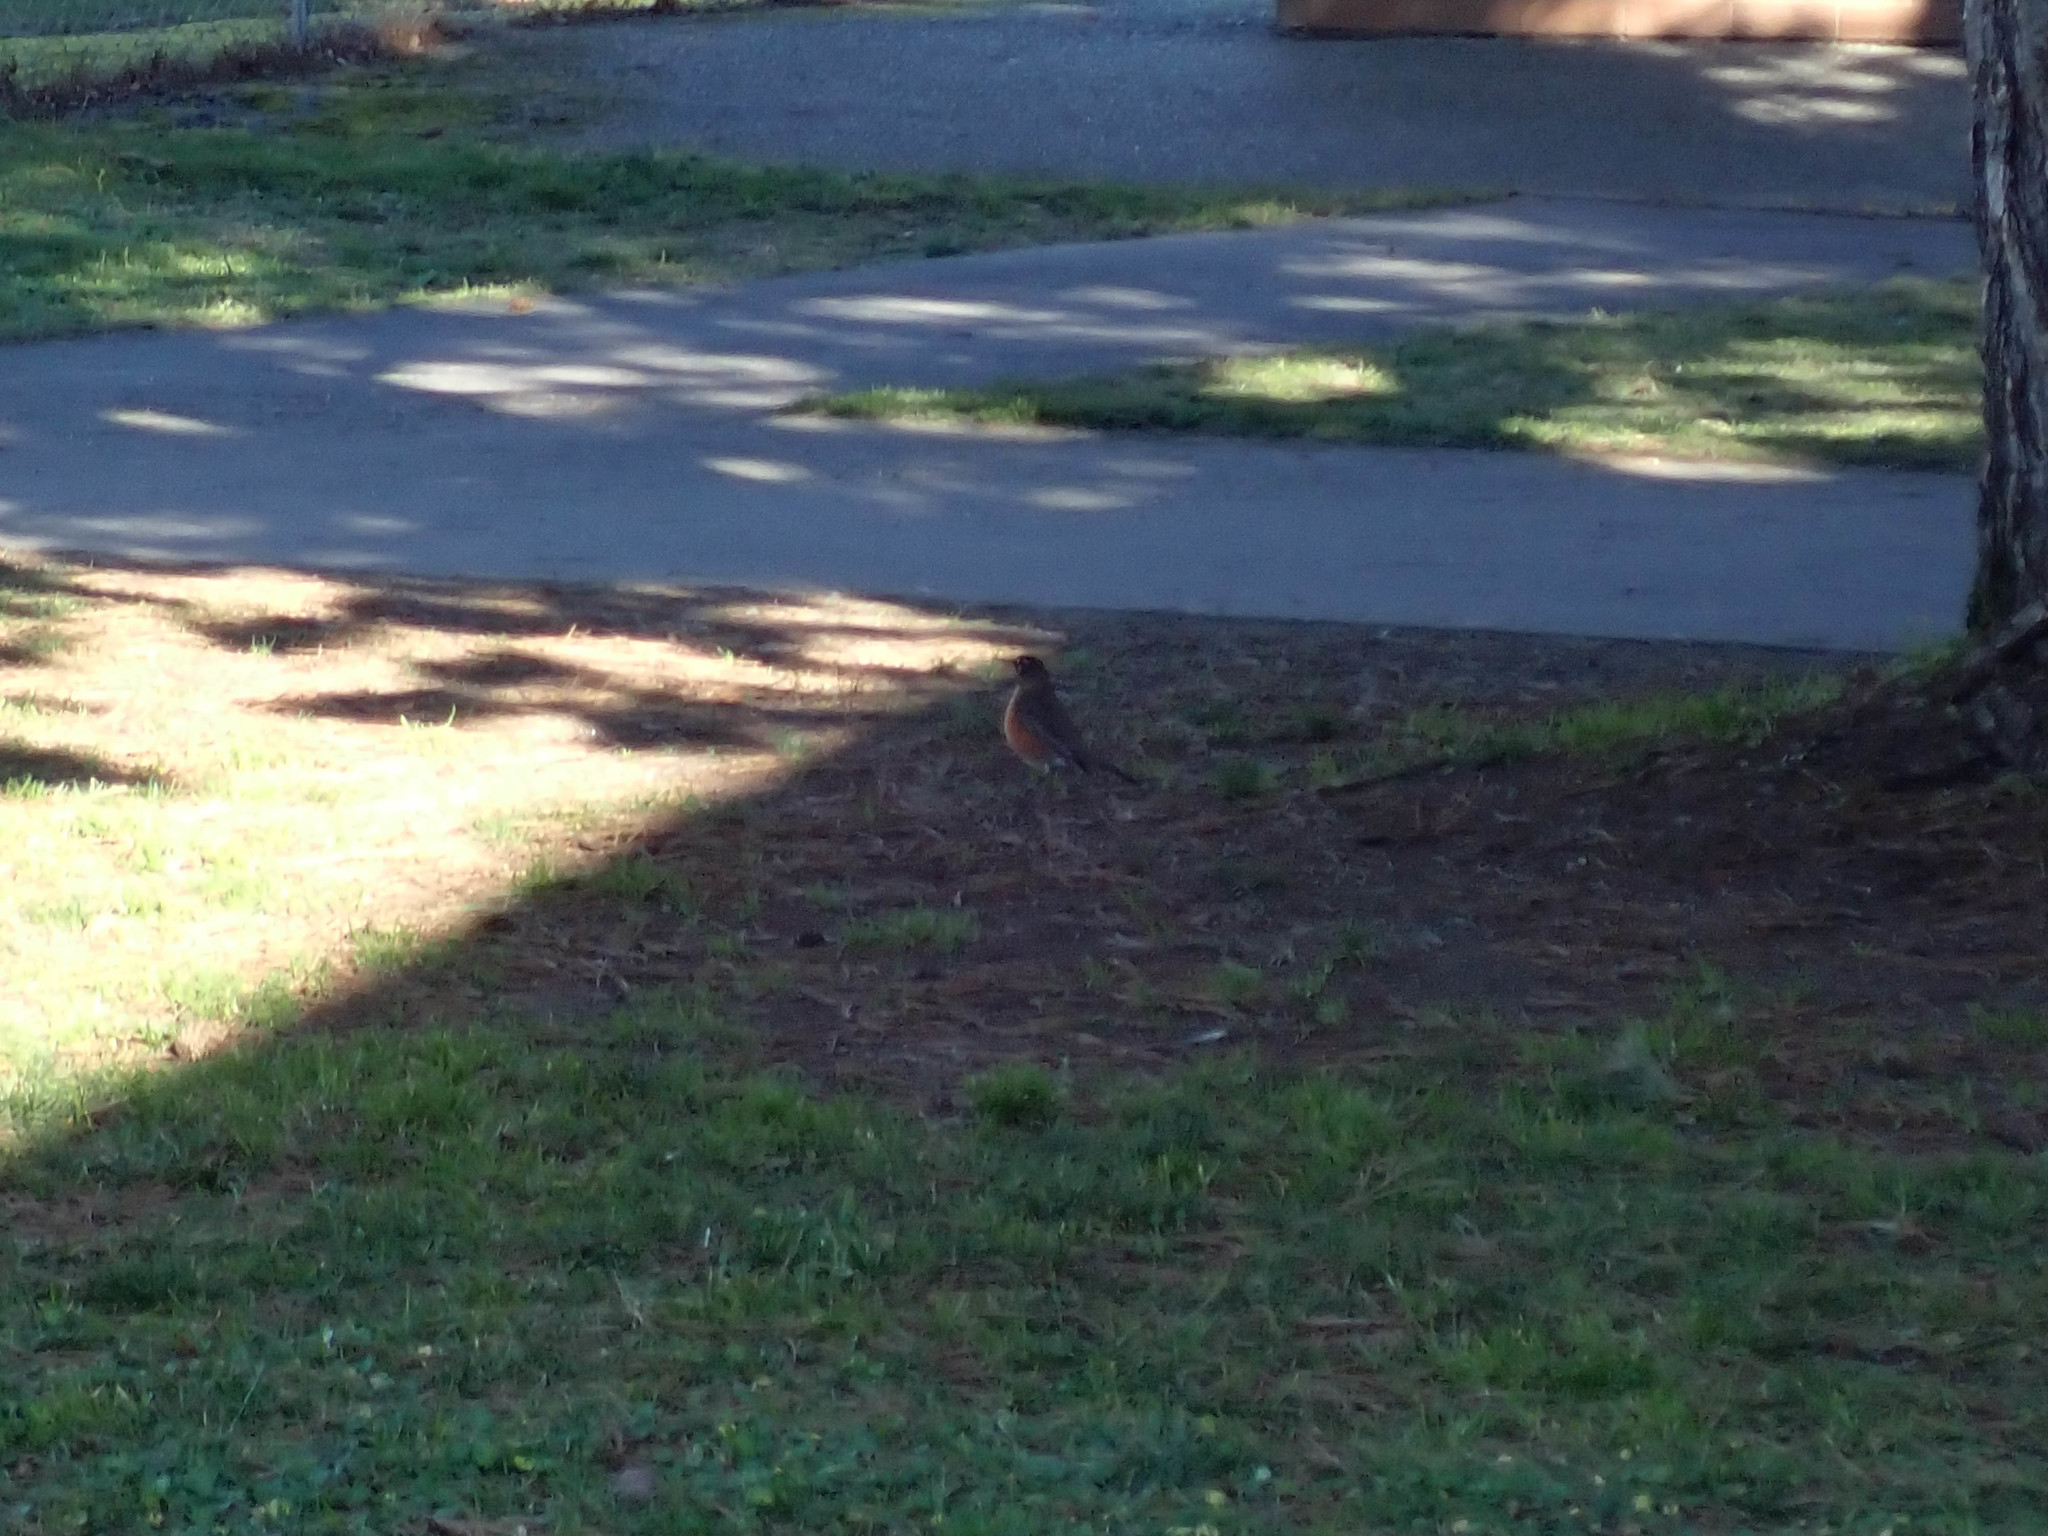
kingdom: Animalia
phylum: Chordata
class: Aves
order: Passeriformes
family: Turdidae
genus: Turdus
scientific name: Turdus migratorius
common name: American robin
